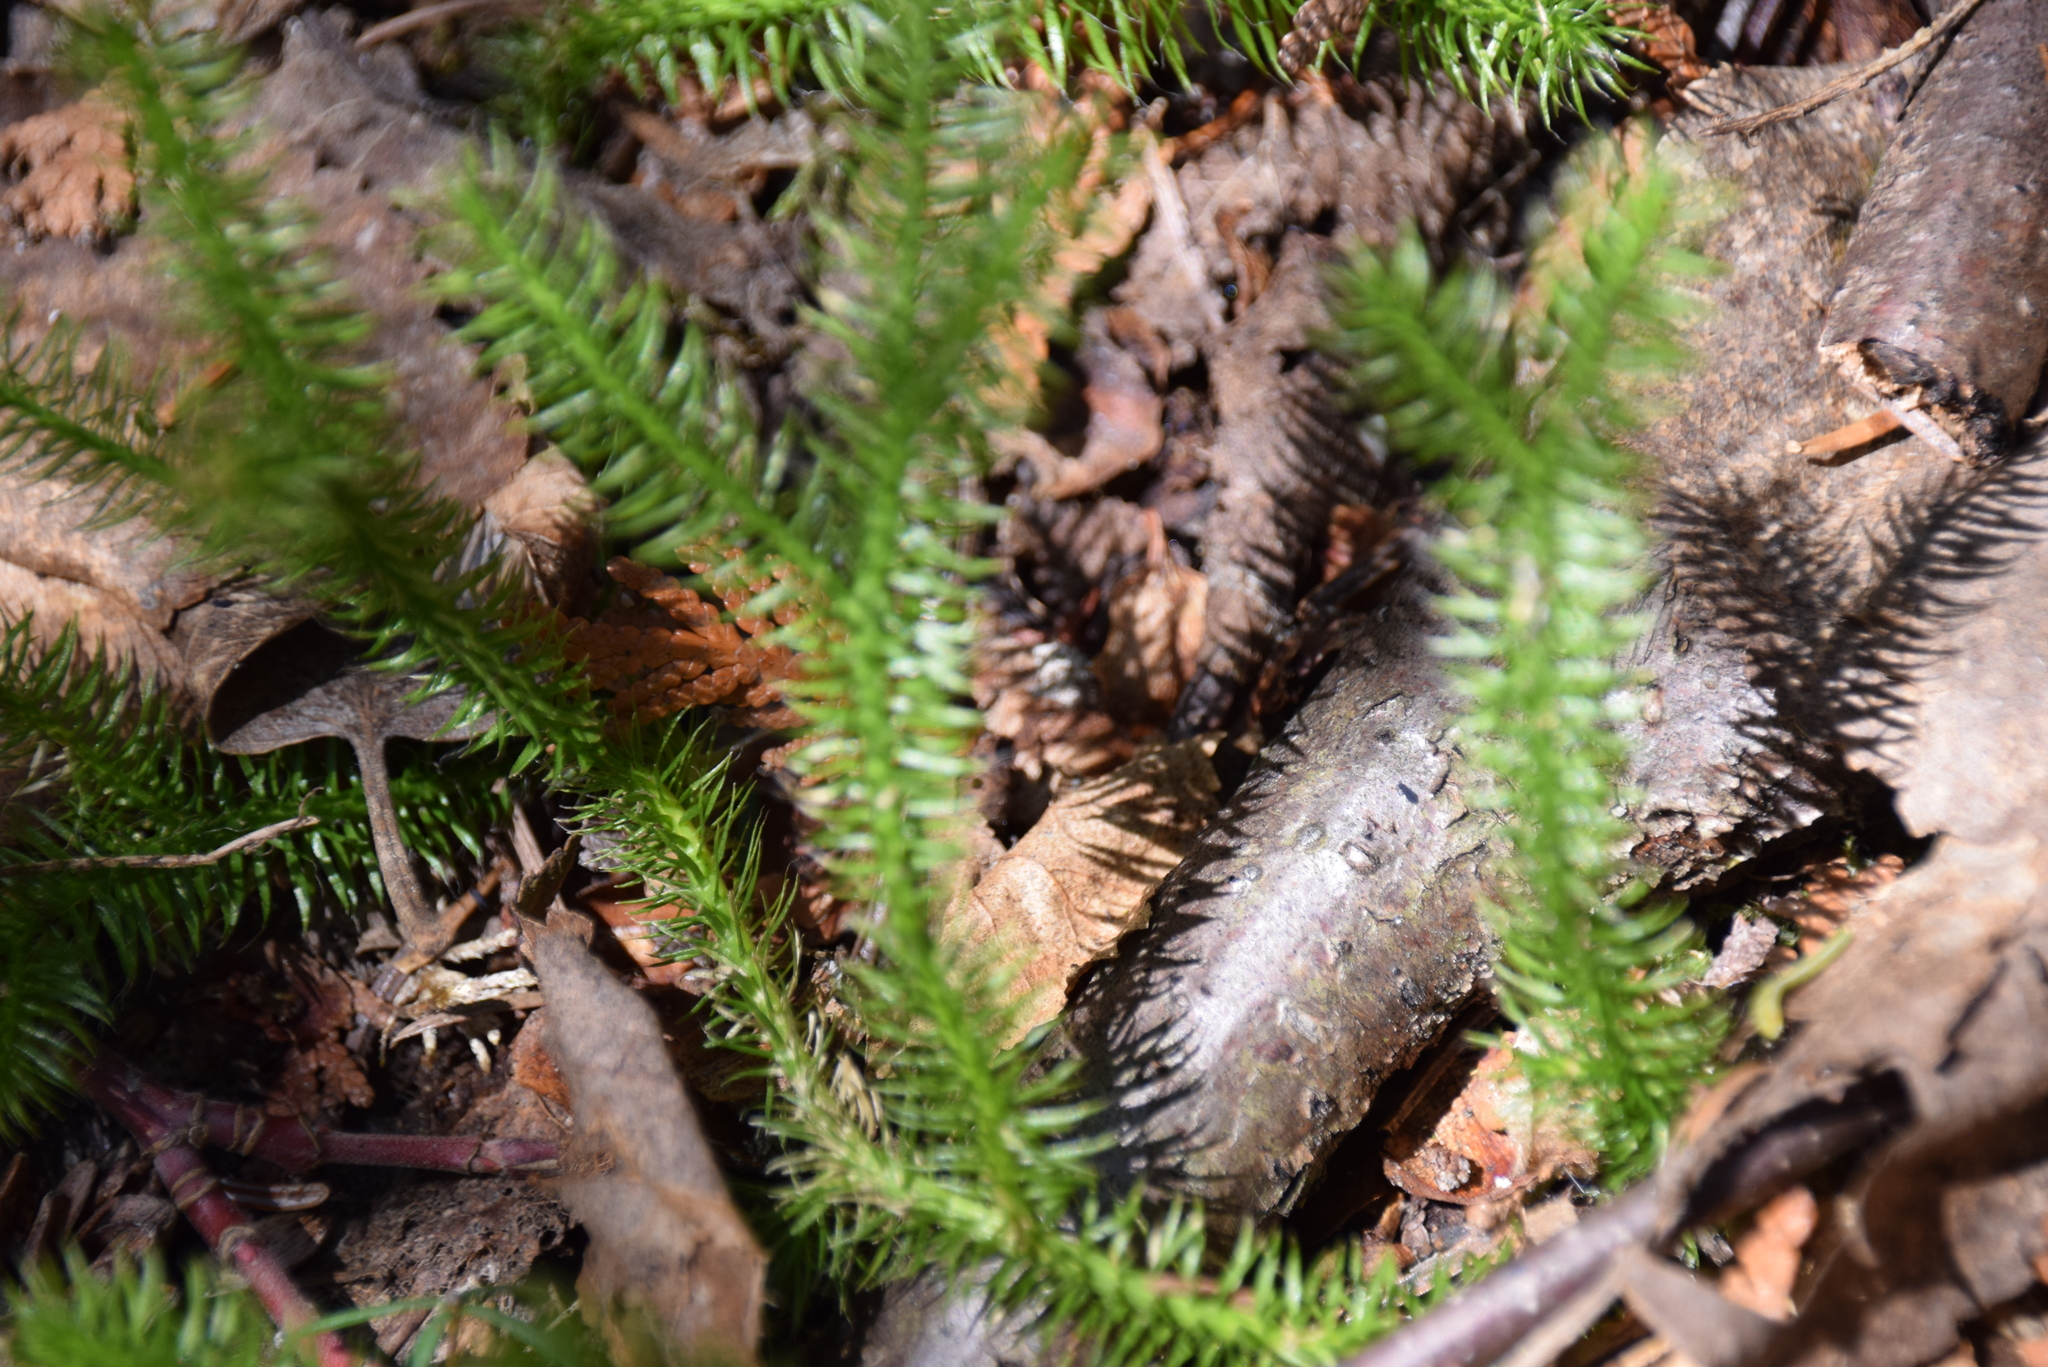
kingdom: Plantae
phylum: Tracheophyta
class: Lycopodiopsida
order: Lycopodiales
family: Lycopodiaceae
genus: Lycopodium
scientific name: Lycopodium clavatum
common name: Stag's-horn clubmoss
